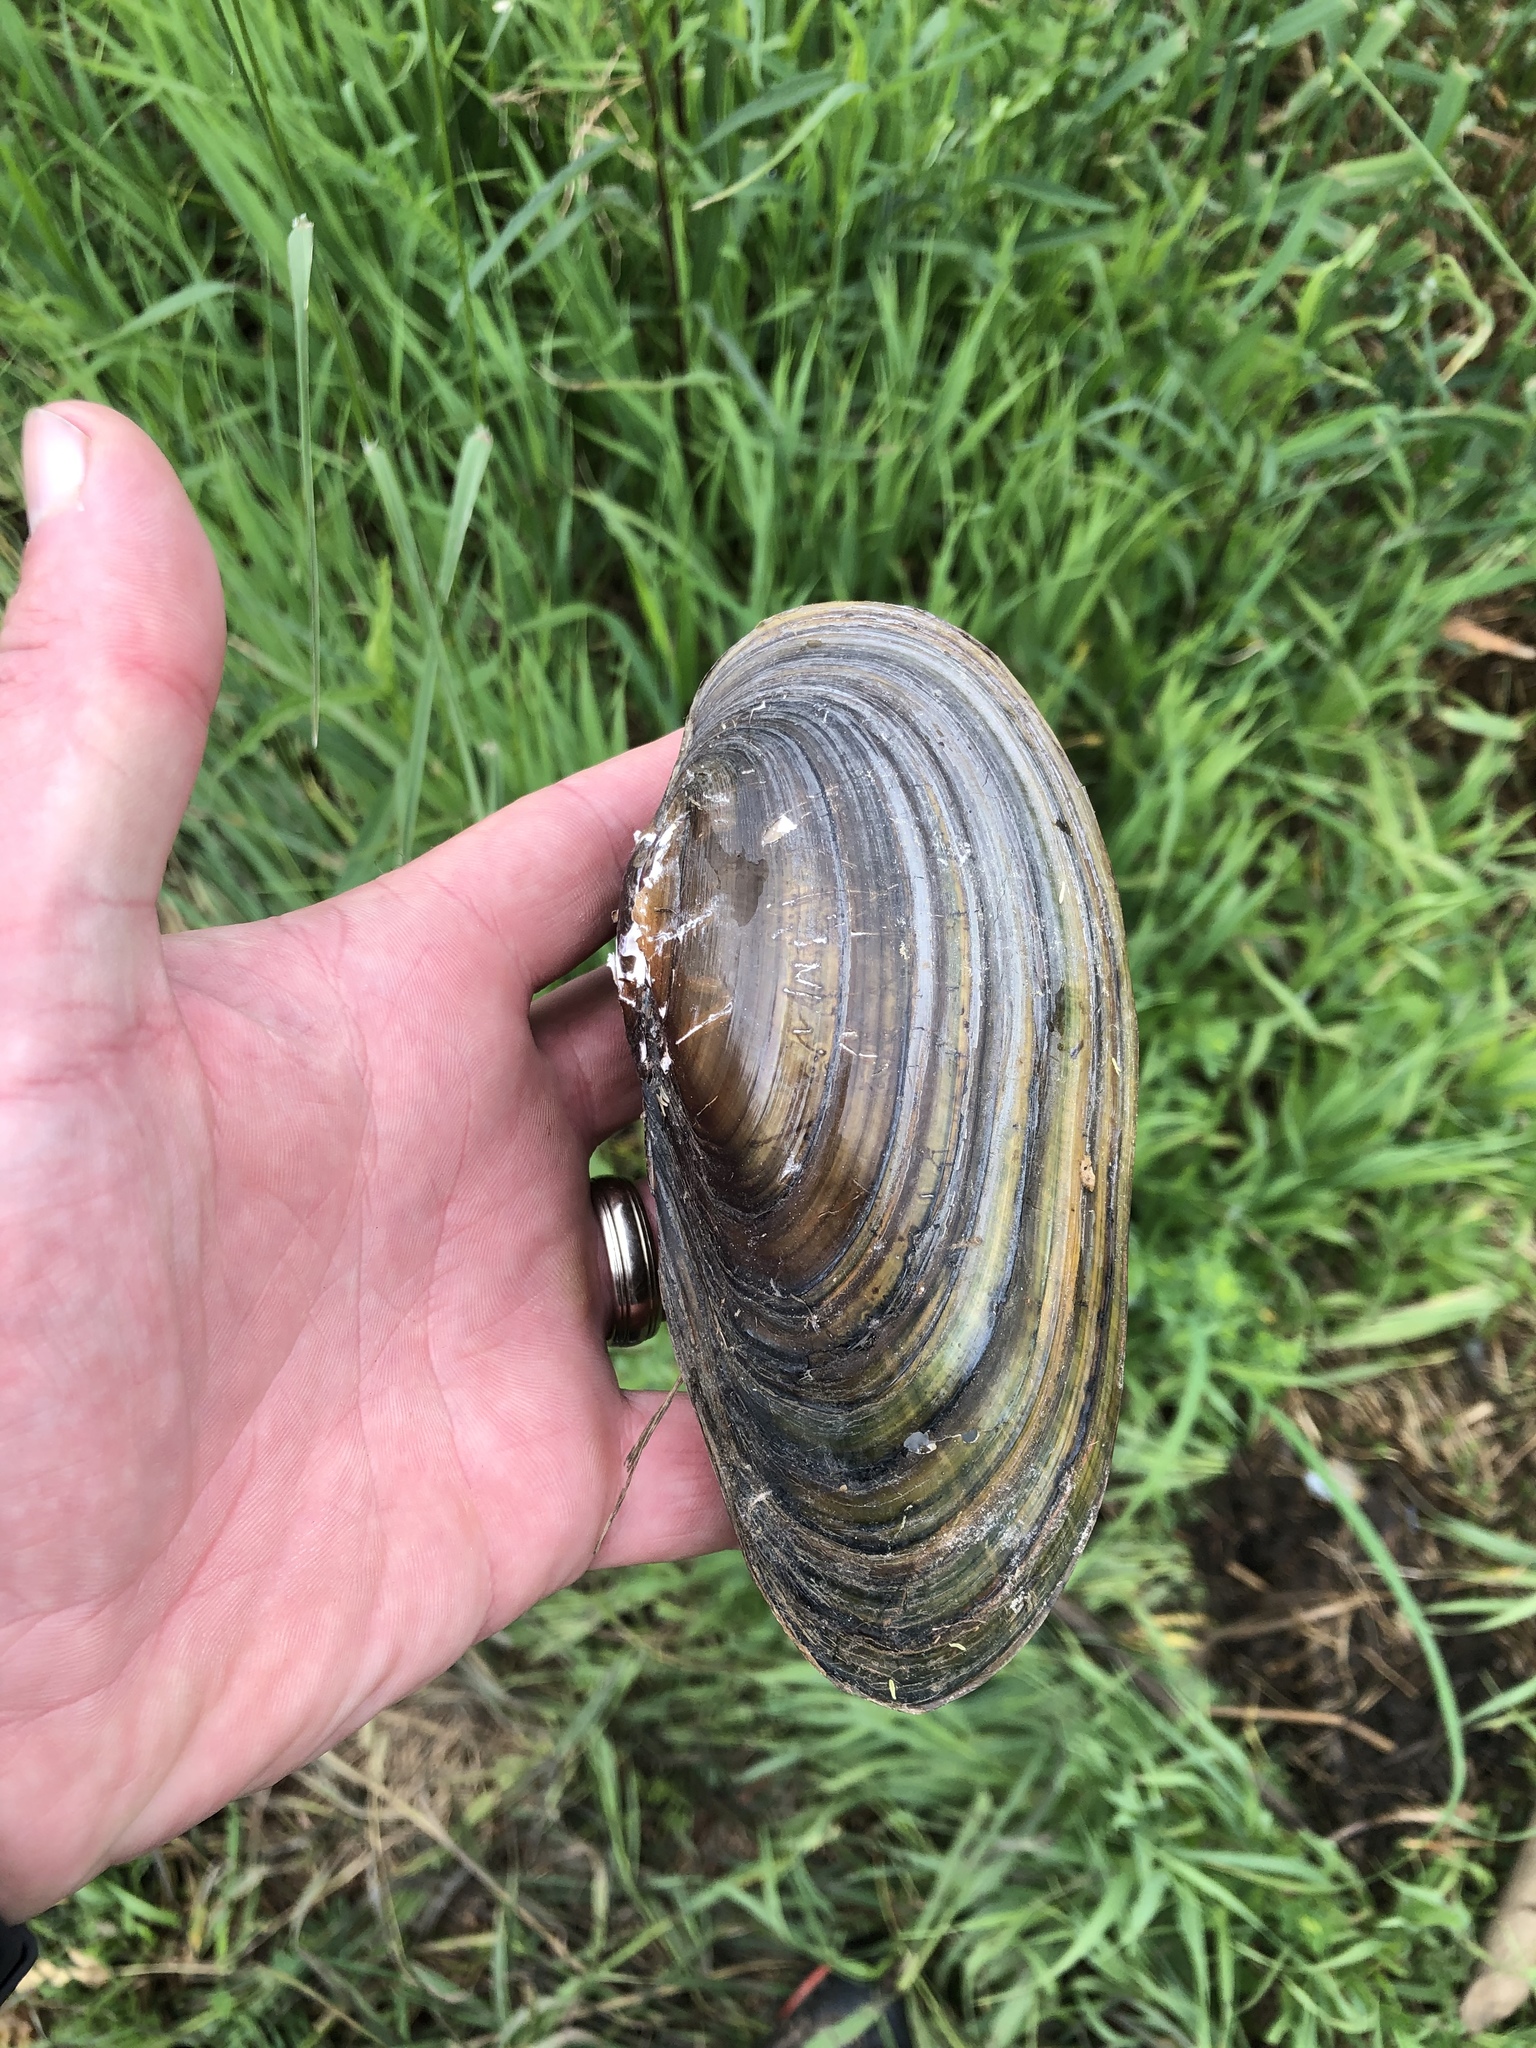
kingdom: Animalia
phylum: Mollusca
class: Bivalvia
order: Unionida
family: Unionidae
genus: Pyganodon
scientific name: Pyganodon grandis
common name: Giant floater
